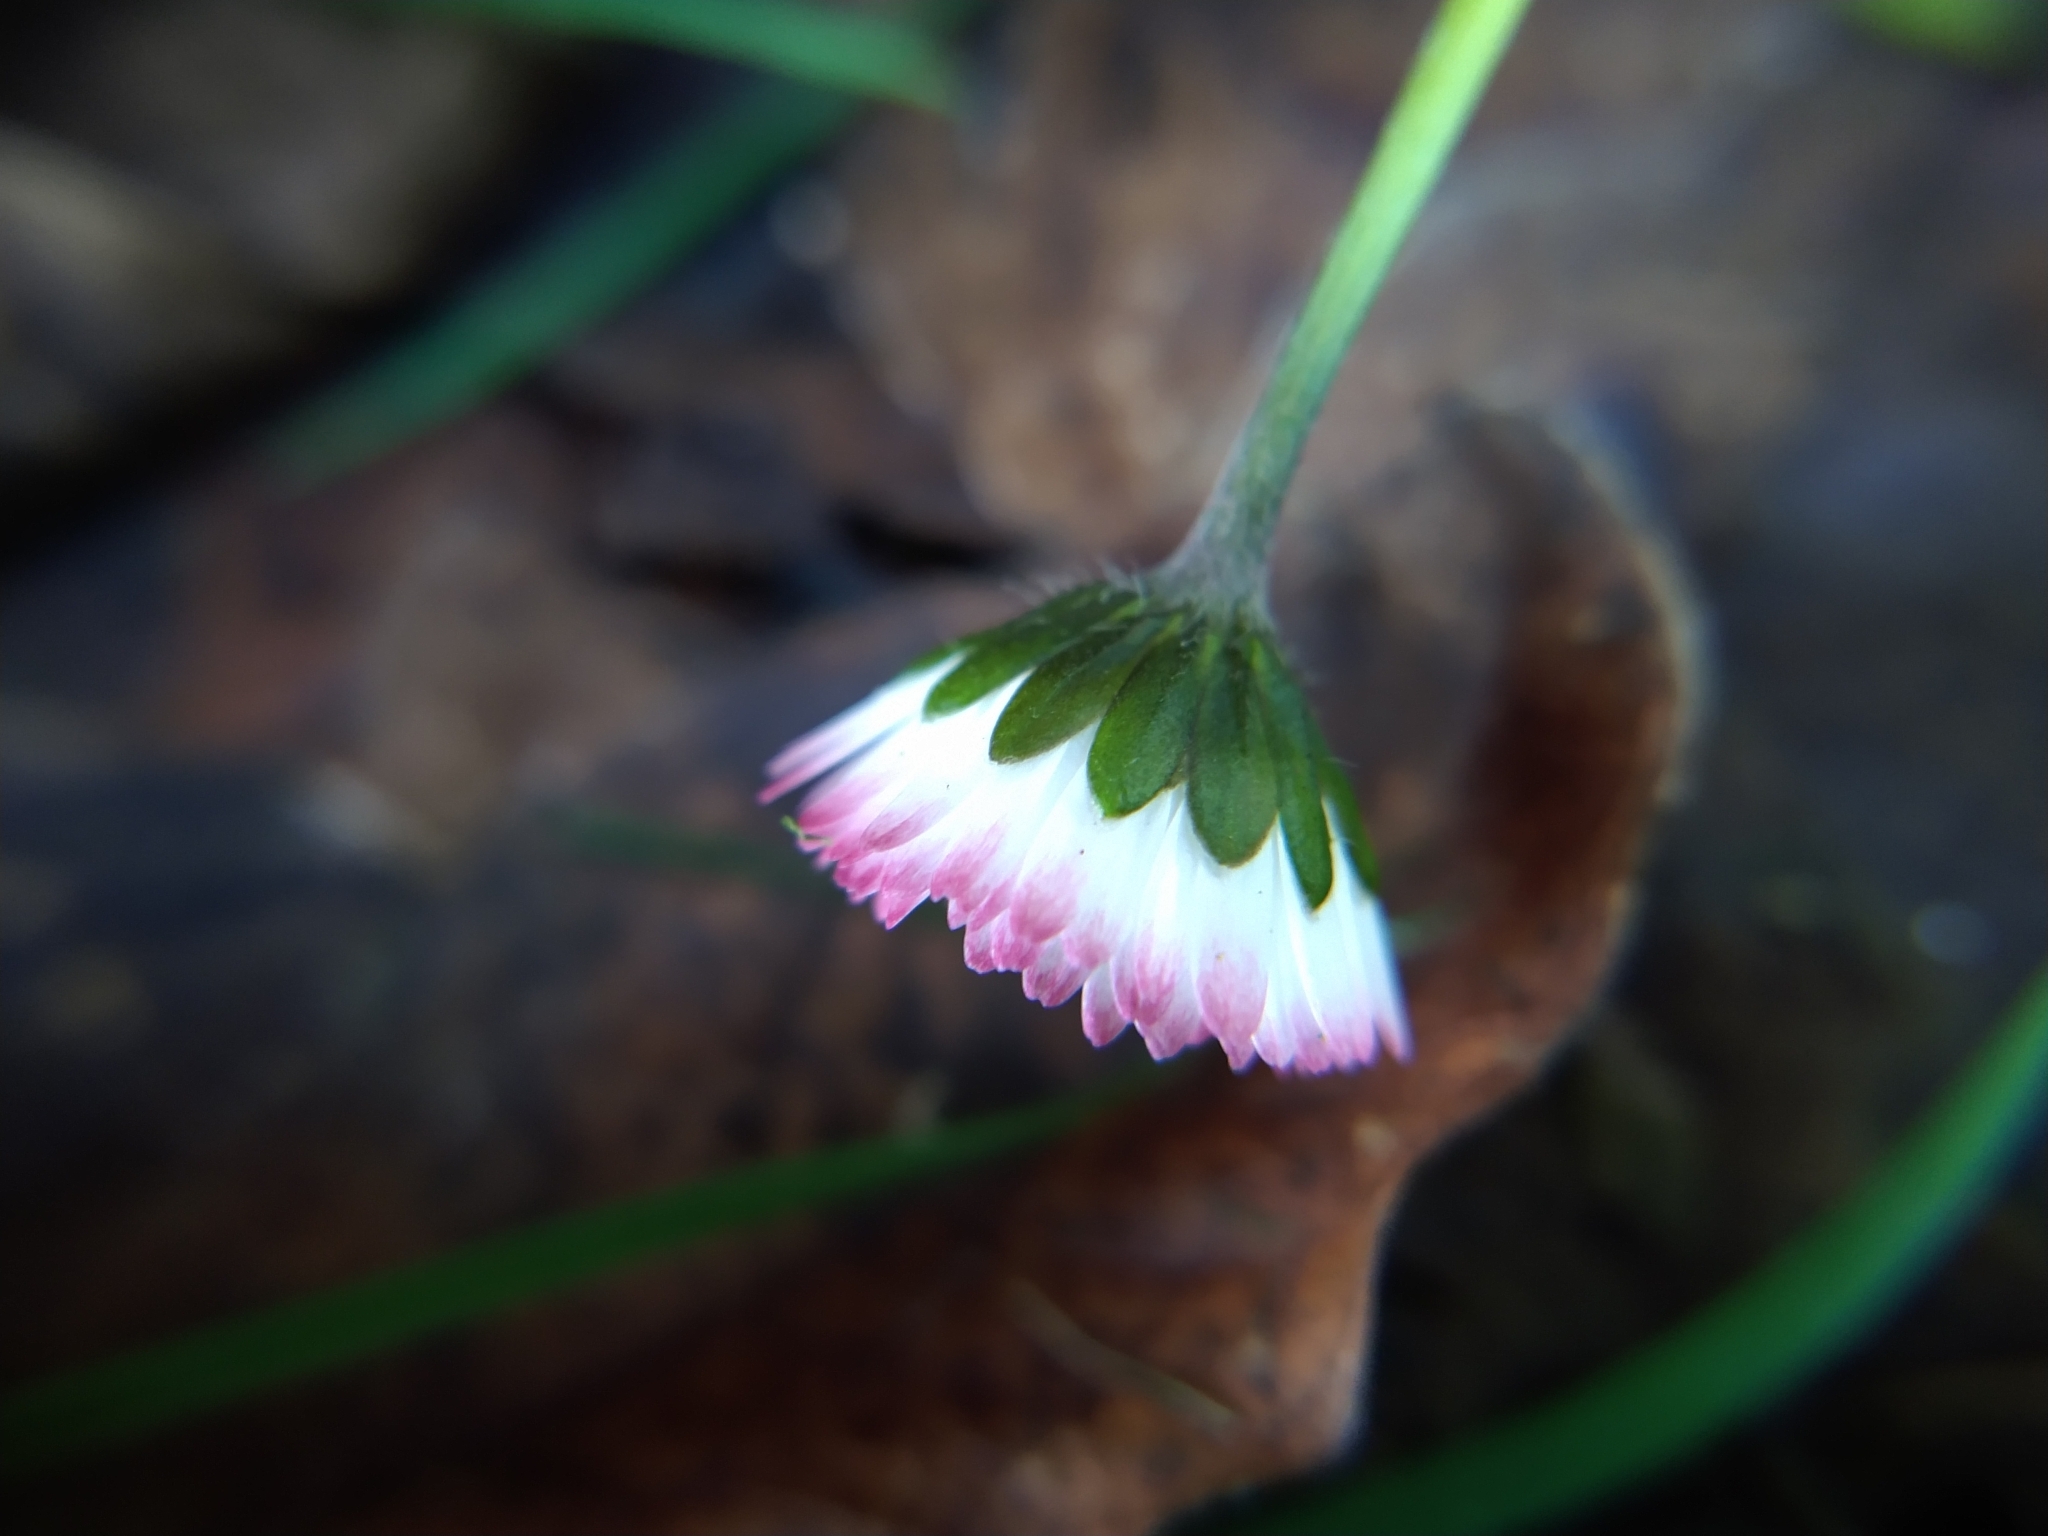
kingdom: Plantae
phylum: Tracheophyta
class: Magnoliopsida
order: Asterales
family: Asteraceae
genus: Bellis
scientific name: Bellis perennis
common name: Lawndaisy
